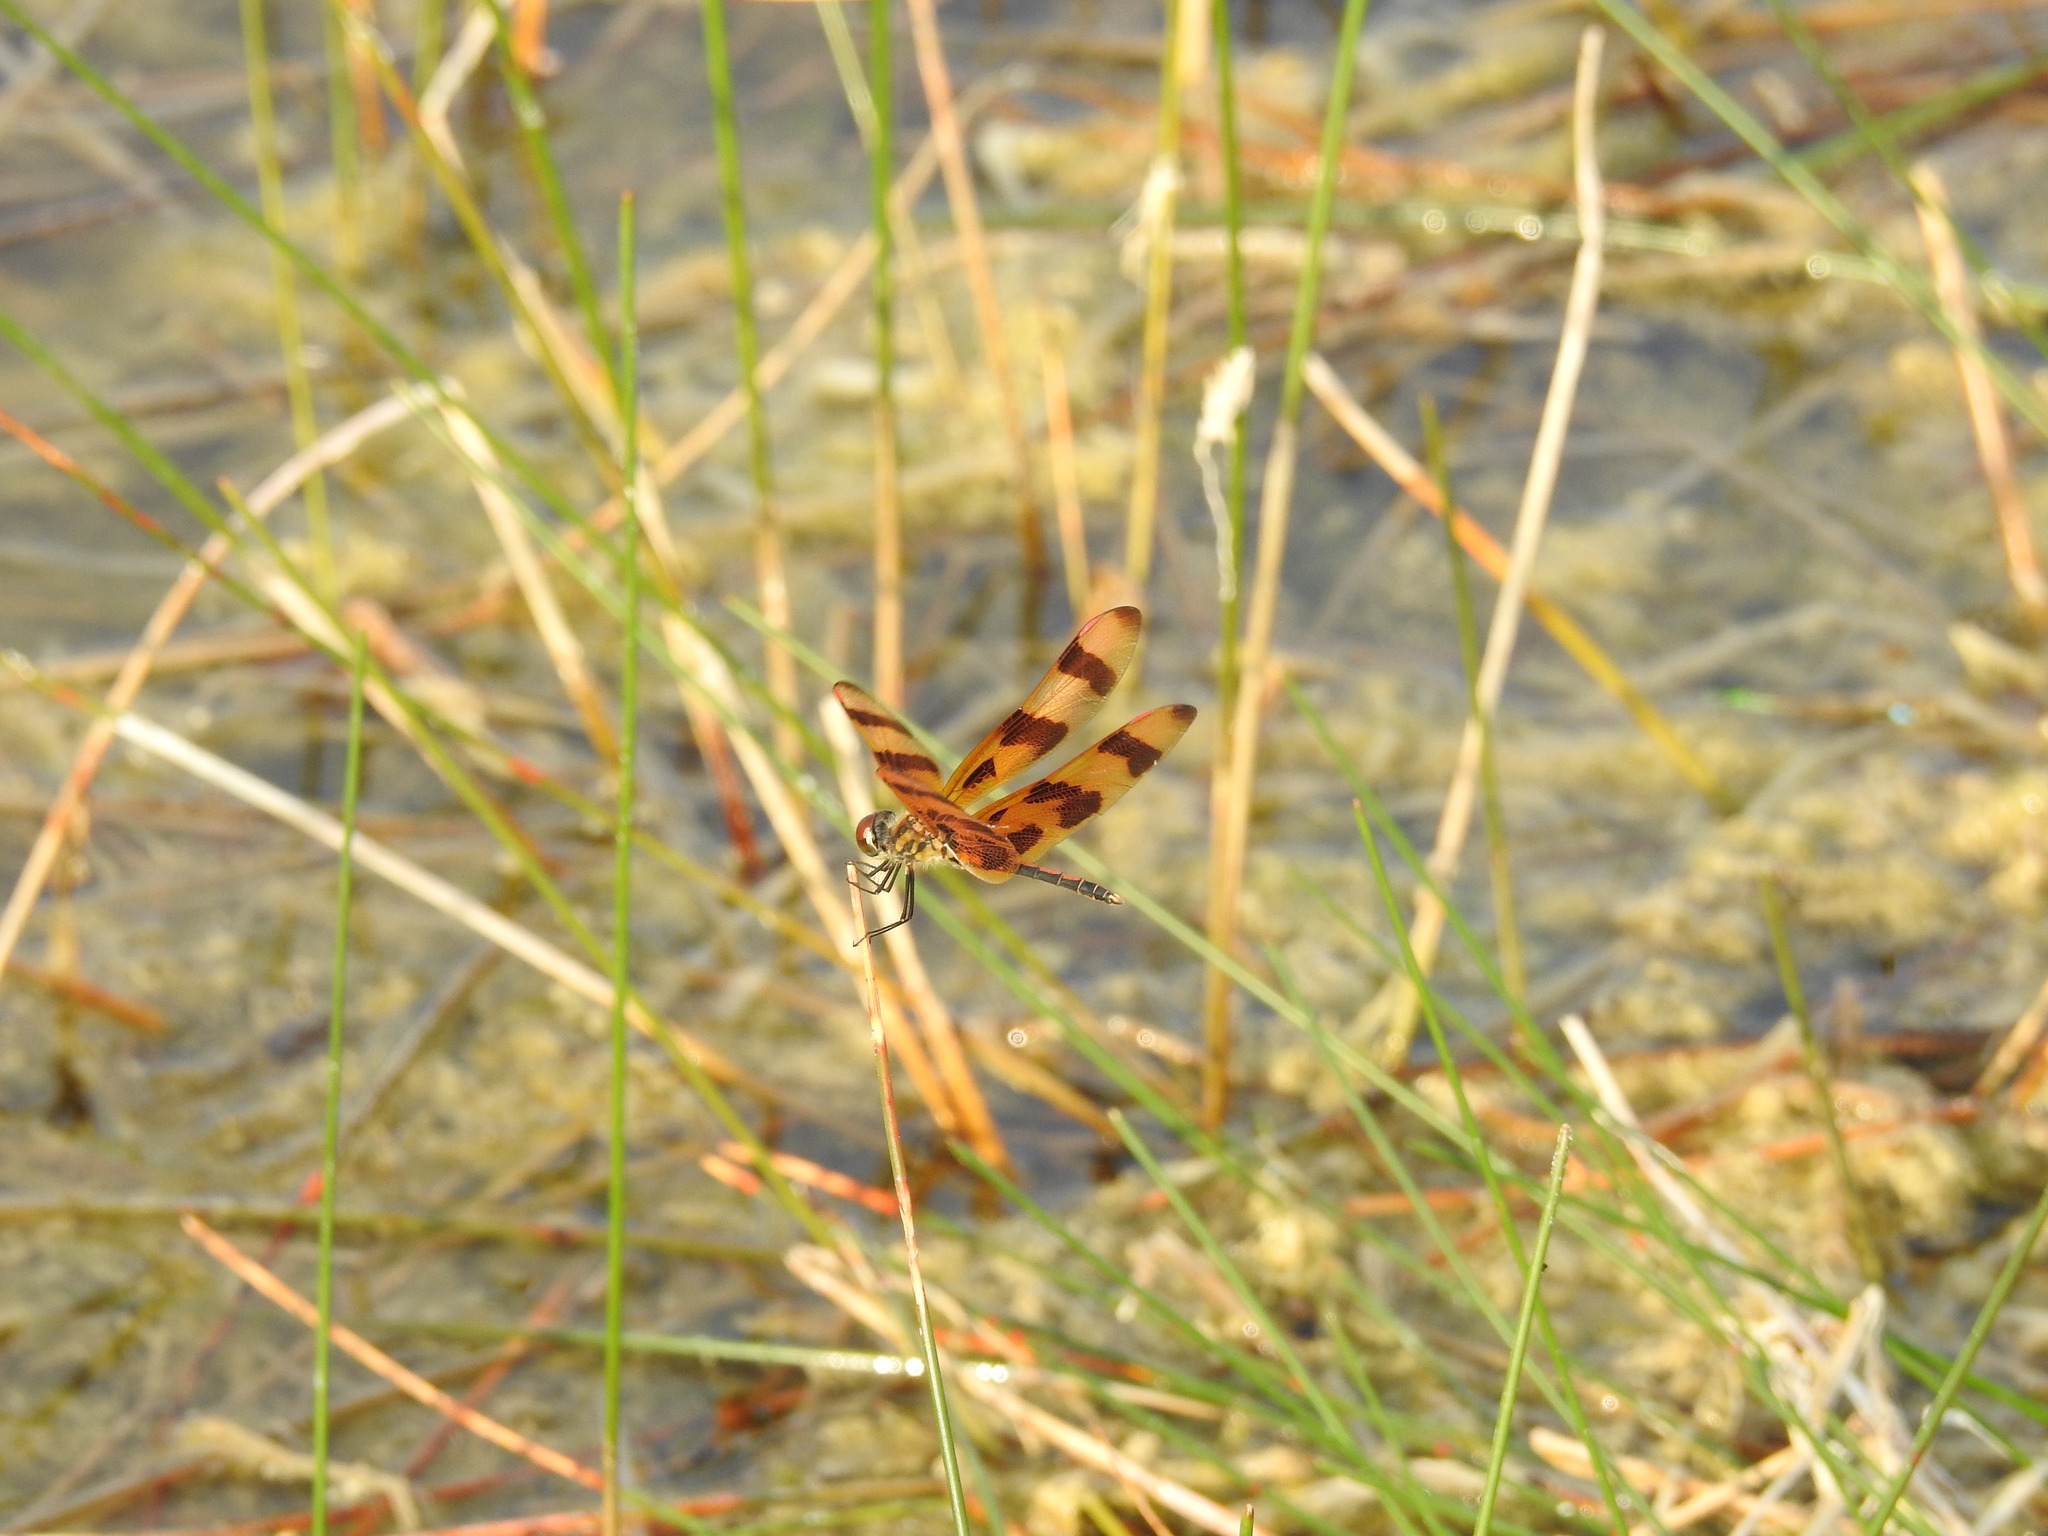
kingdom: Animalia
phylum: Arthropoda
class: Insecta
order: Odonata
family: Libellulidae
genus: Celithemis
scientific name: Celithemis eponina
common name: Halloween pennant
